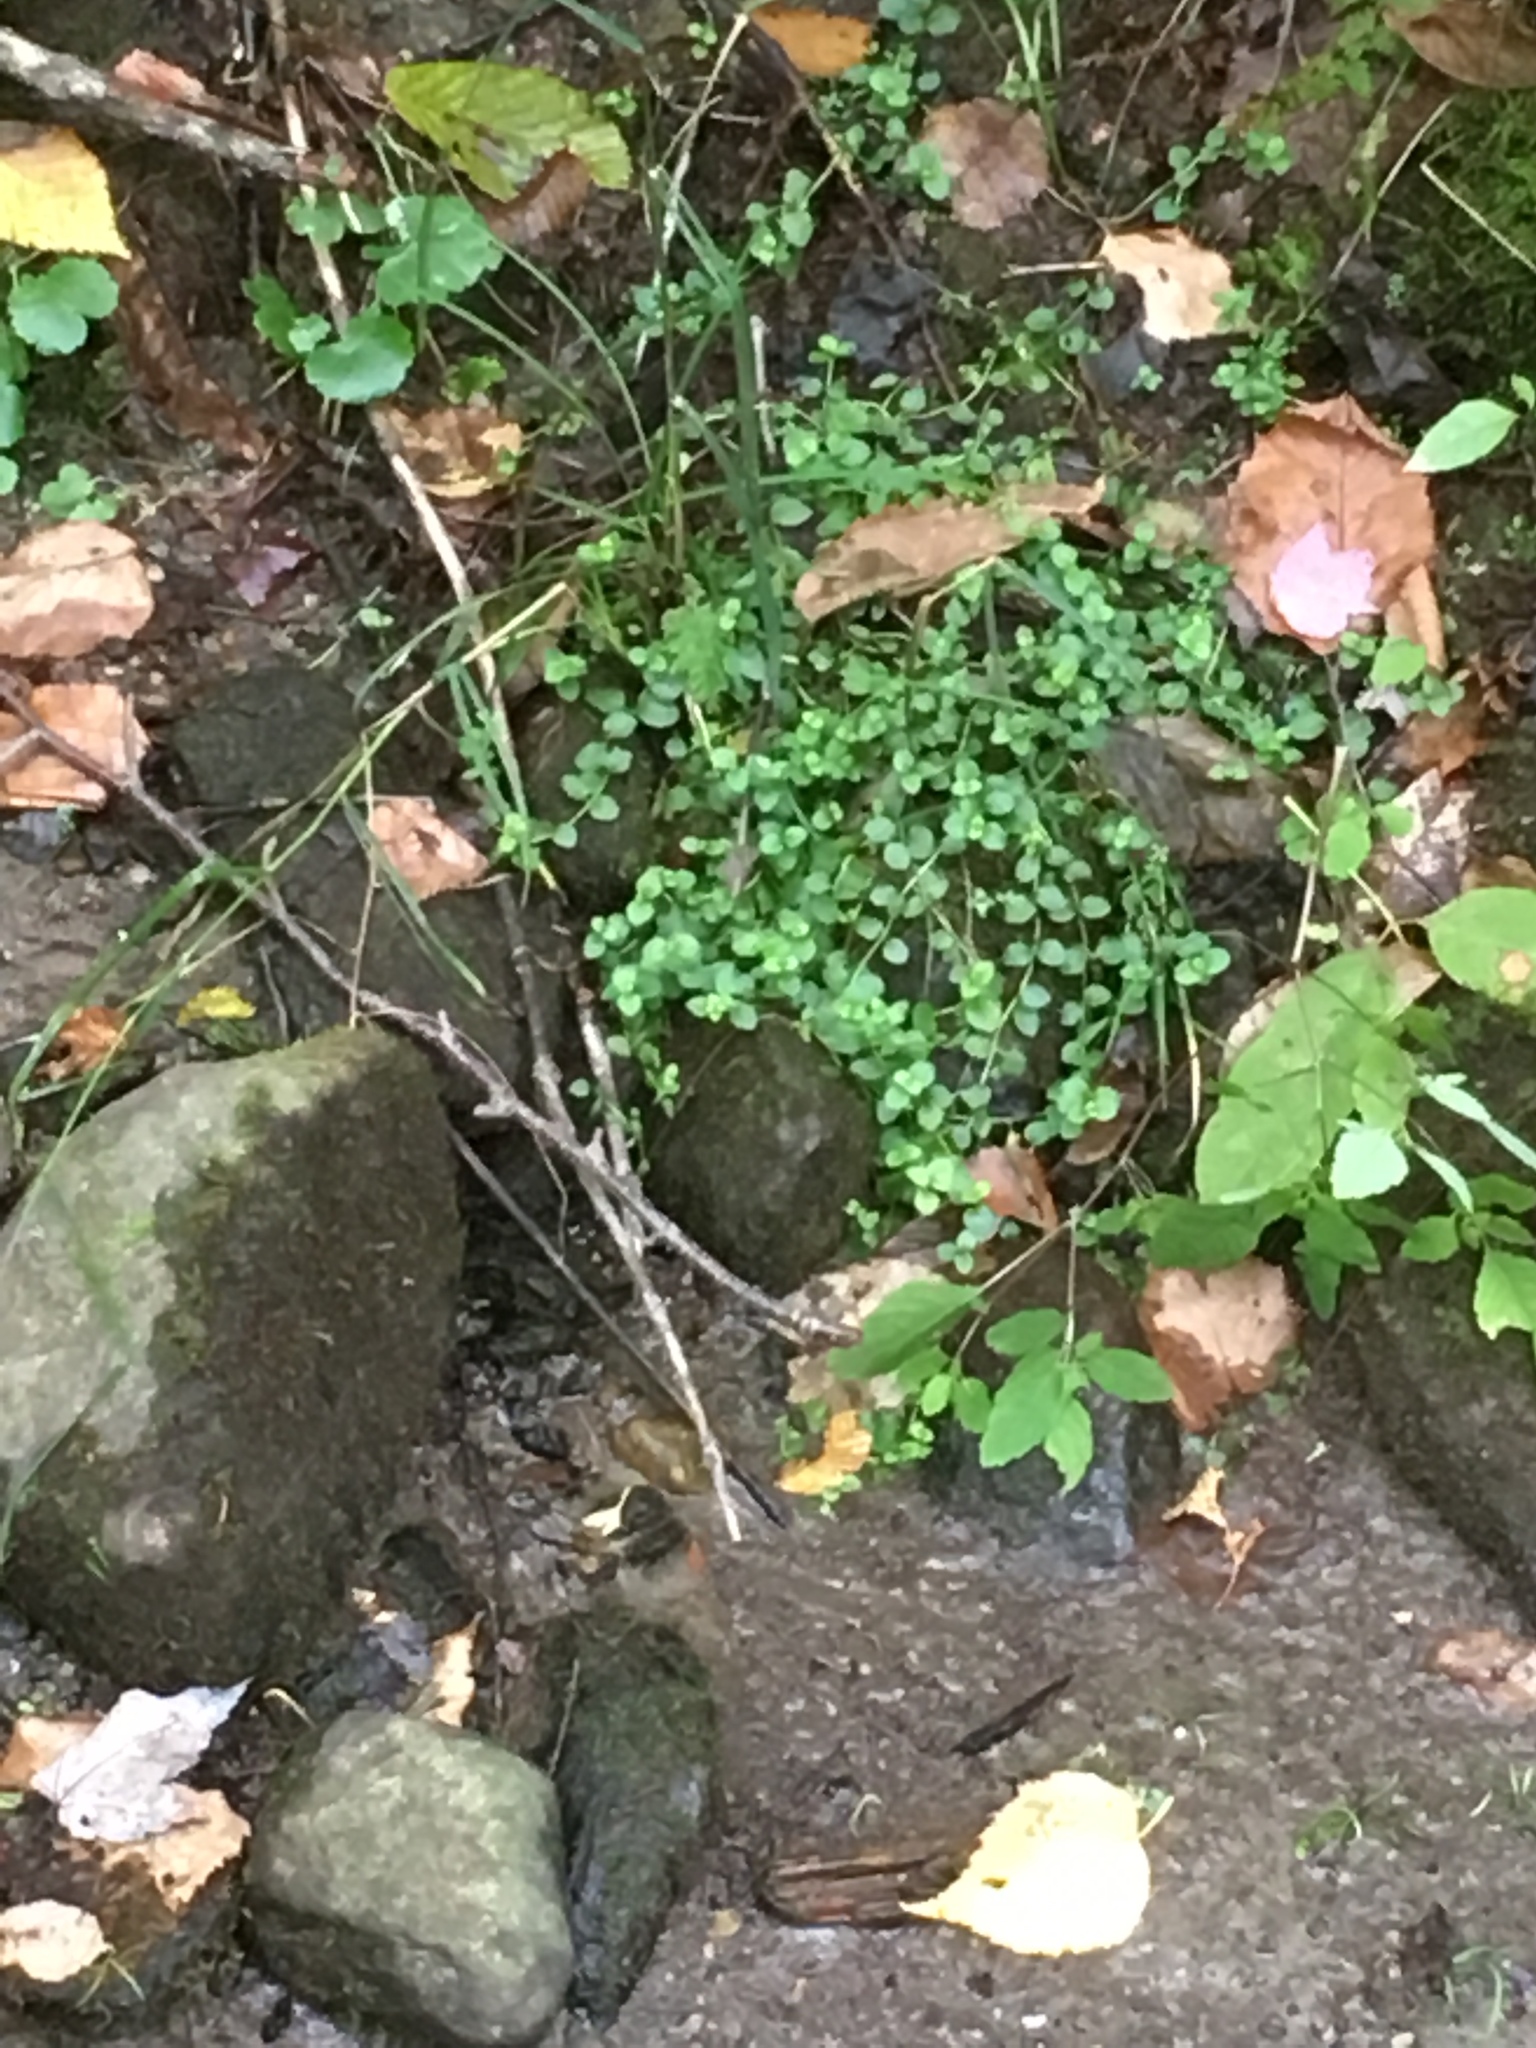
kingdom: Plantae
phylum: Tracheophyta
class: Magnoliopsida
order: Saxifragales
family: Saxifragaceae
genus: Chrysosplenium
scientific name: Chrysosplenium americanum
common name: American golden-saxifrage
